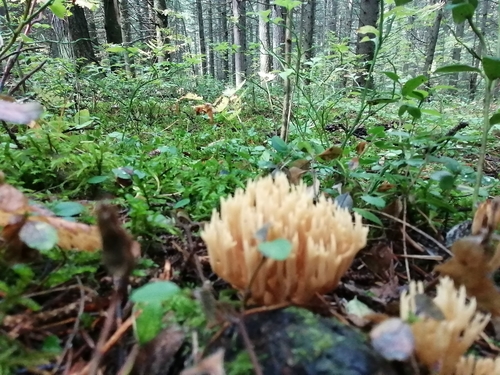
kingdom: Fungi
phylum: Basidiomycota
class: Agaricomycetes
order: Agaricales
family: Clavariaceae
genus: Ramariopsis
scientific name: Ramariopsis
